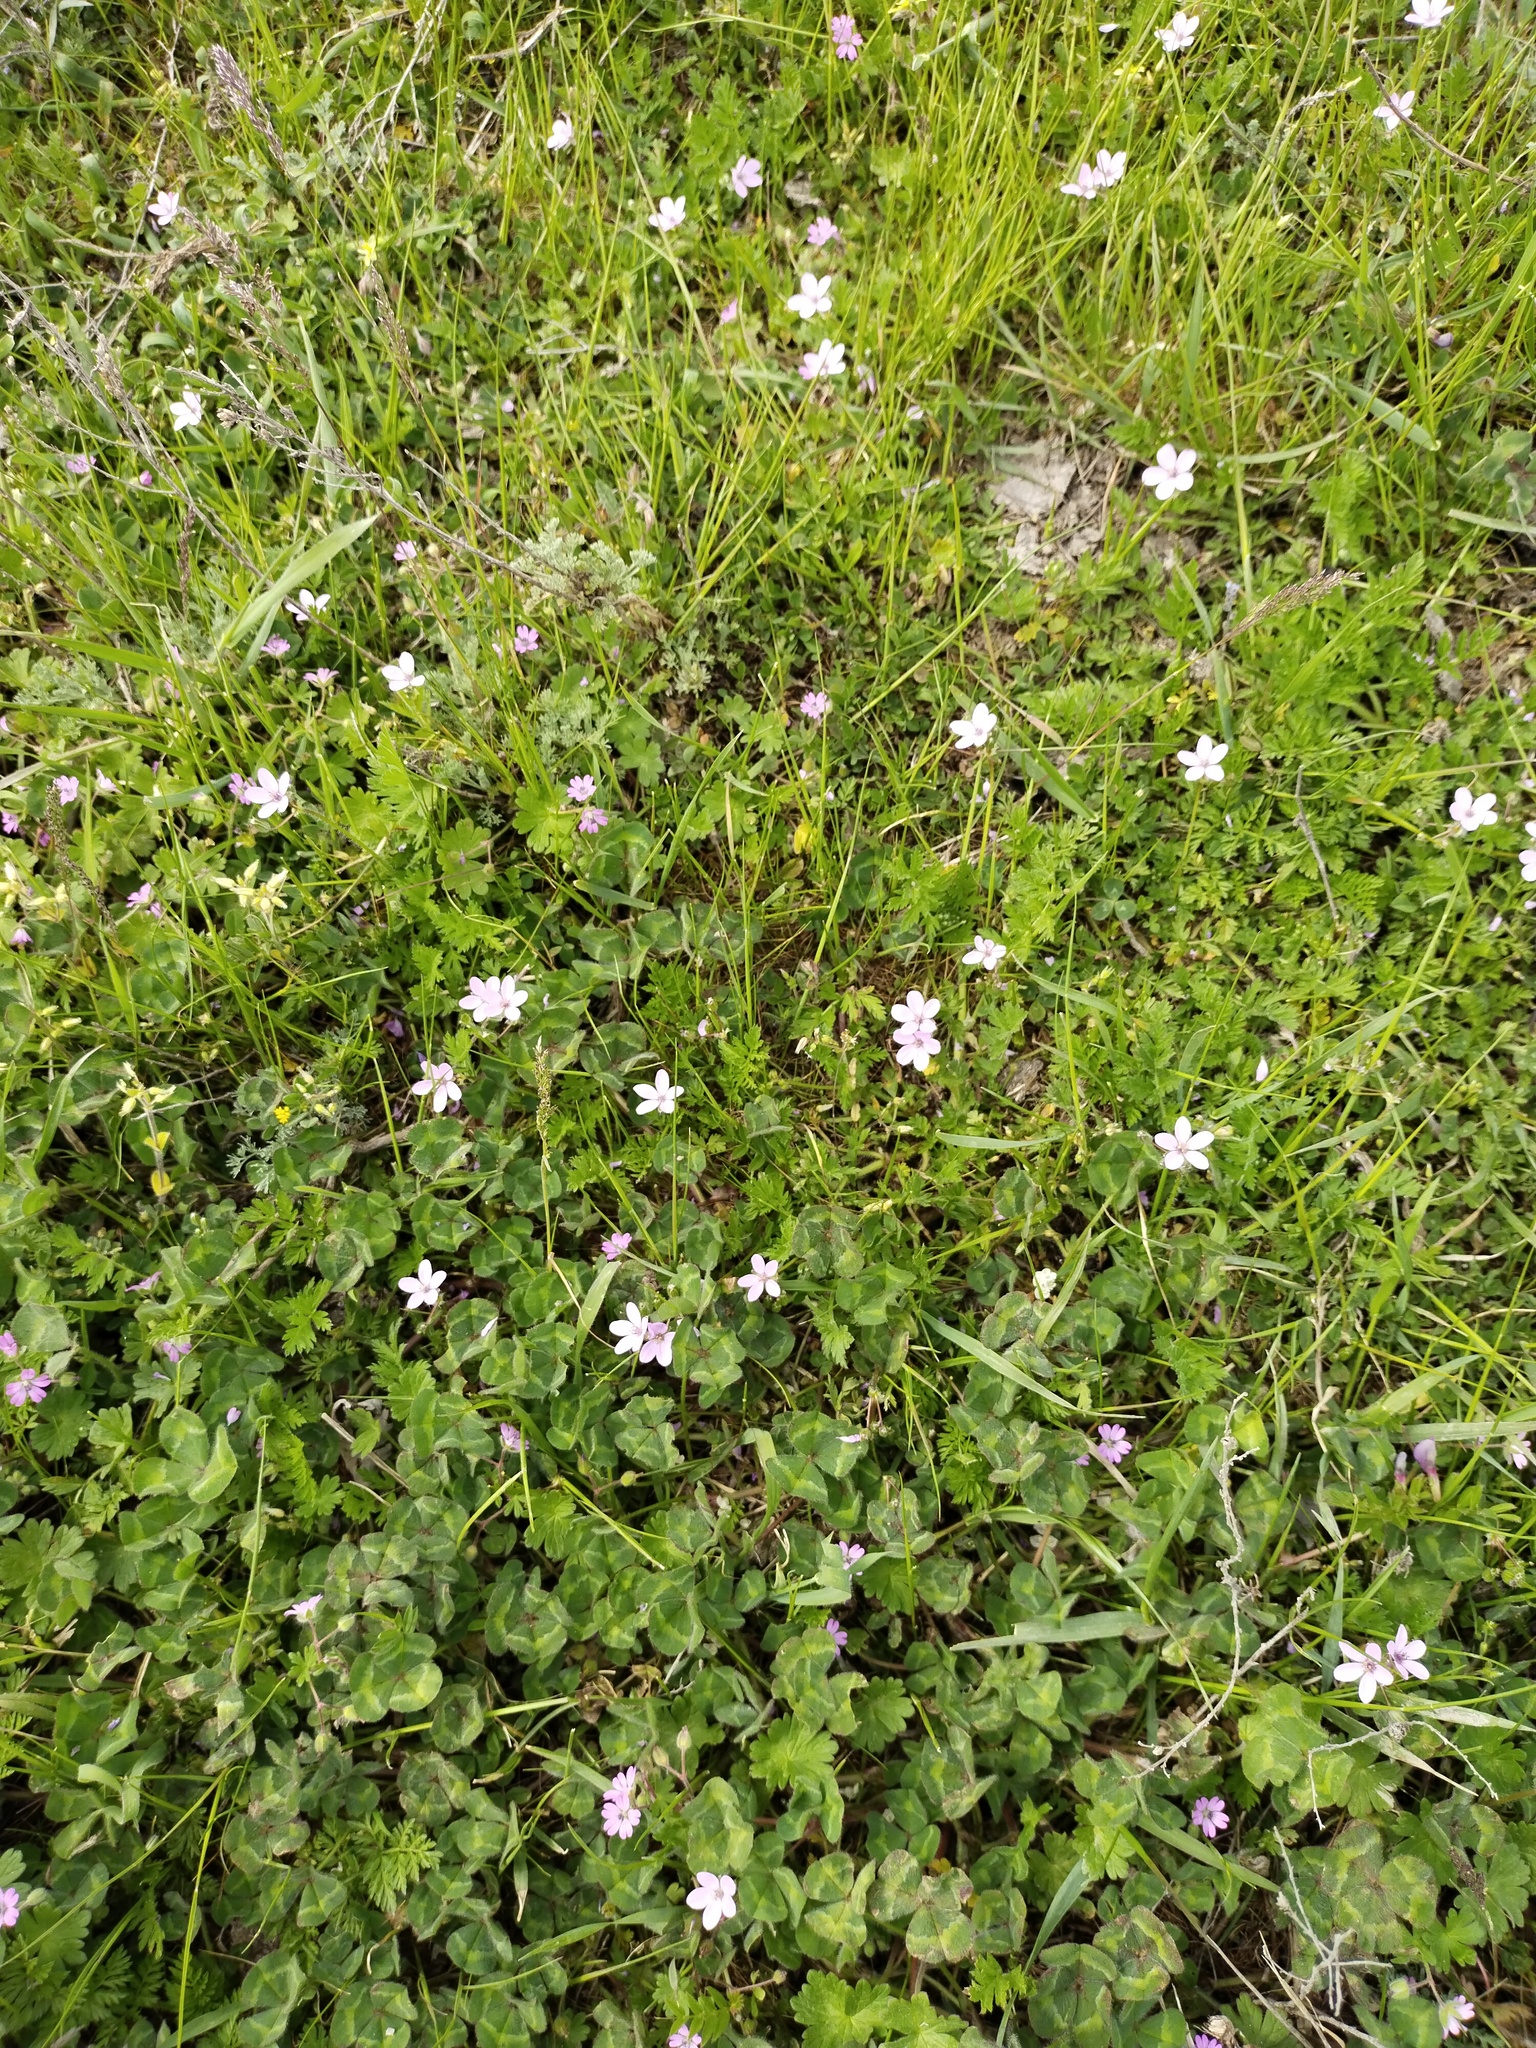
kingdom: Plantae
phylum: Tracheophyta
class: Magnoliopsida
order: Geraniales
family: Geraniaceae
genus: Erodium
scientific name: Erodium cicutarium
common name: Common stork's-bill
